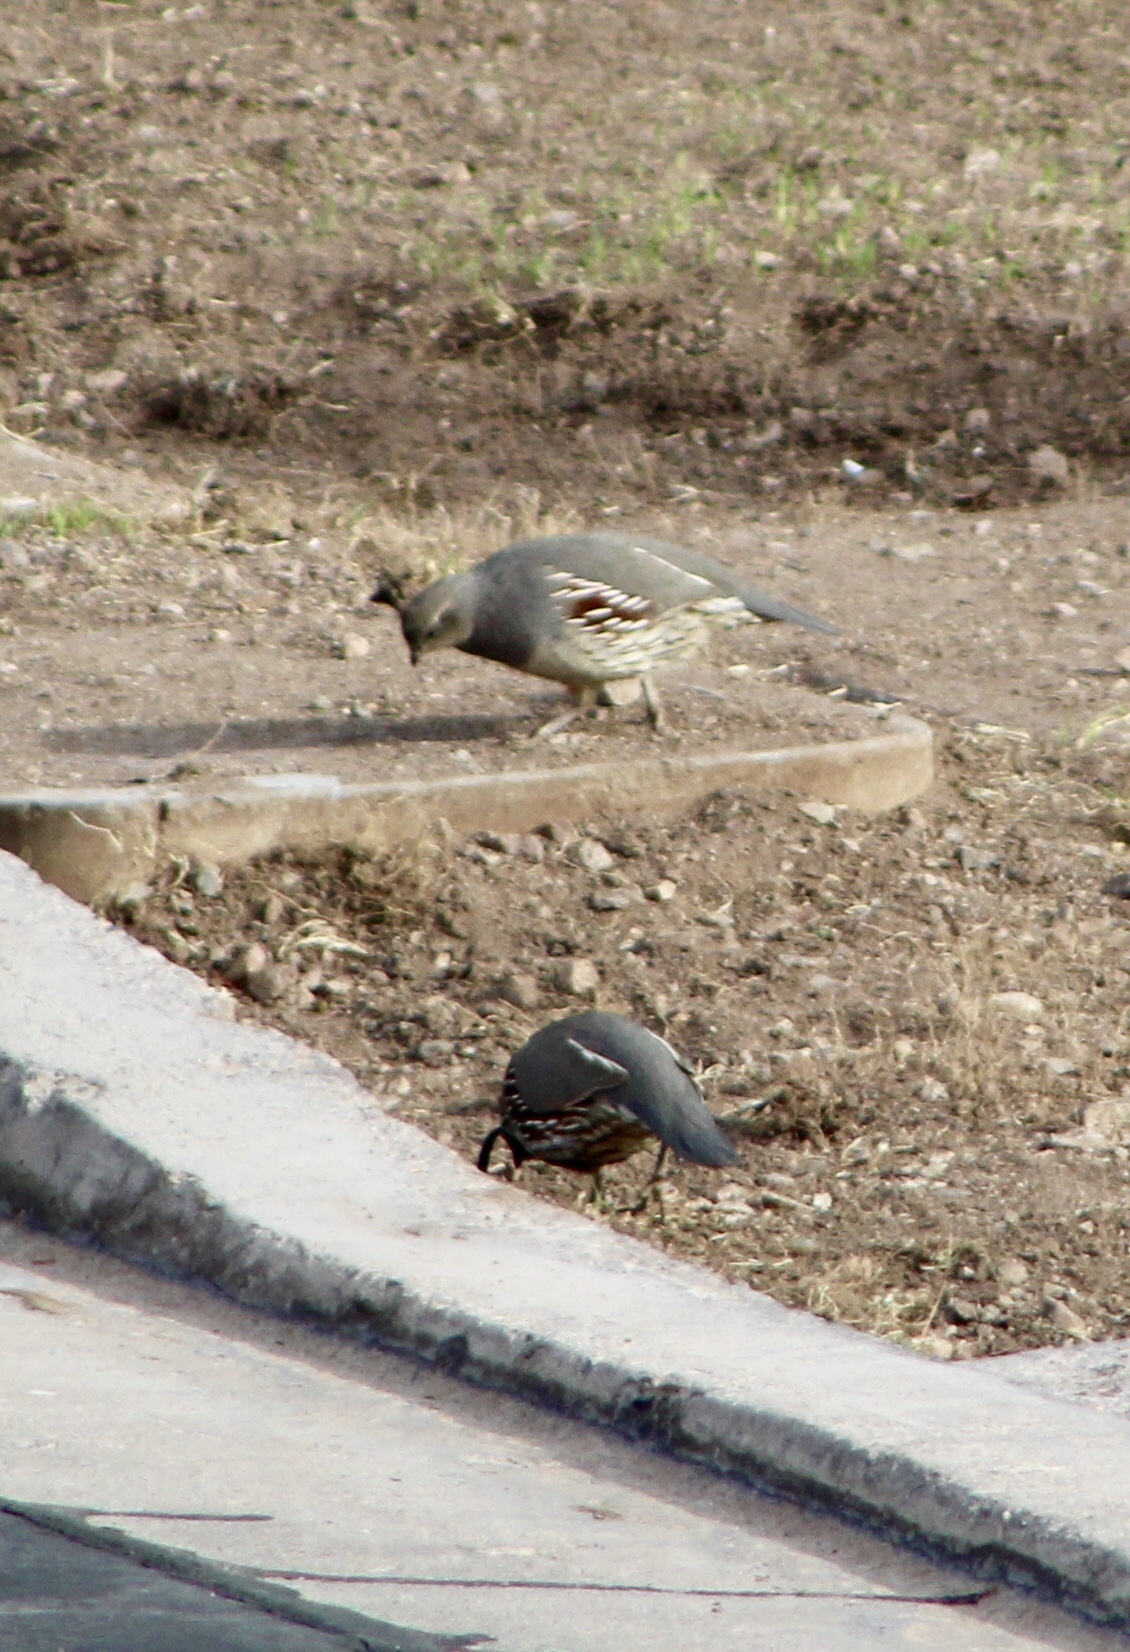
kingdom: Animalia
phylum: Chordata
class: Aves
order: Galliformes
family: Odontophoridae
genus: Callipepla
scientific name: Callipepla gambelii
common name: Gambel's quail
